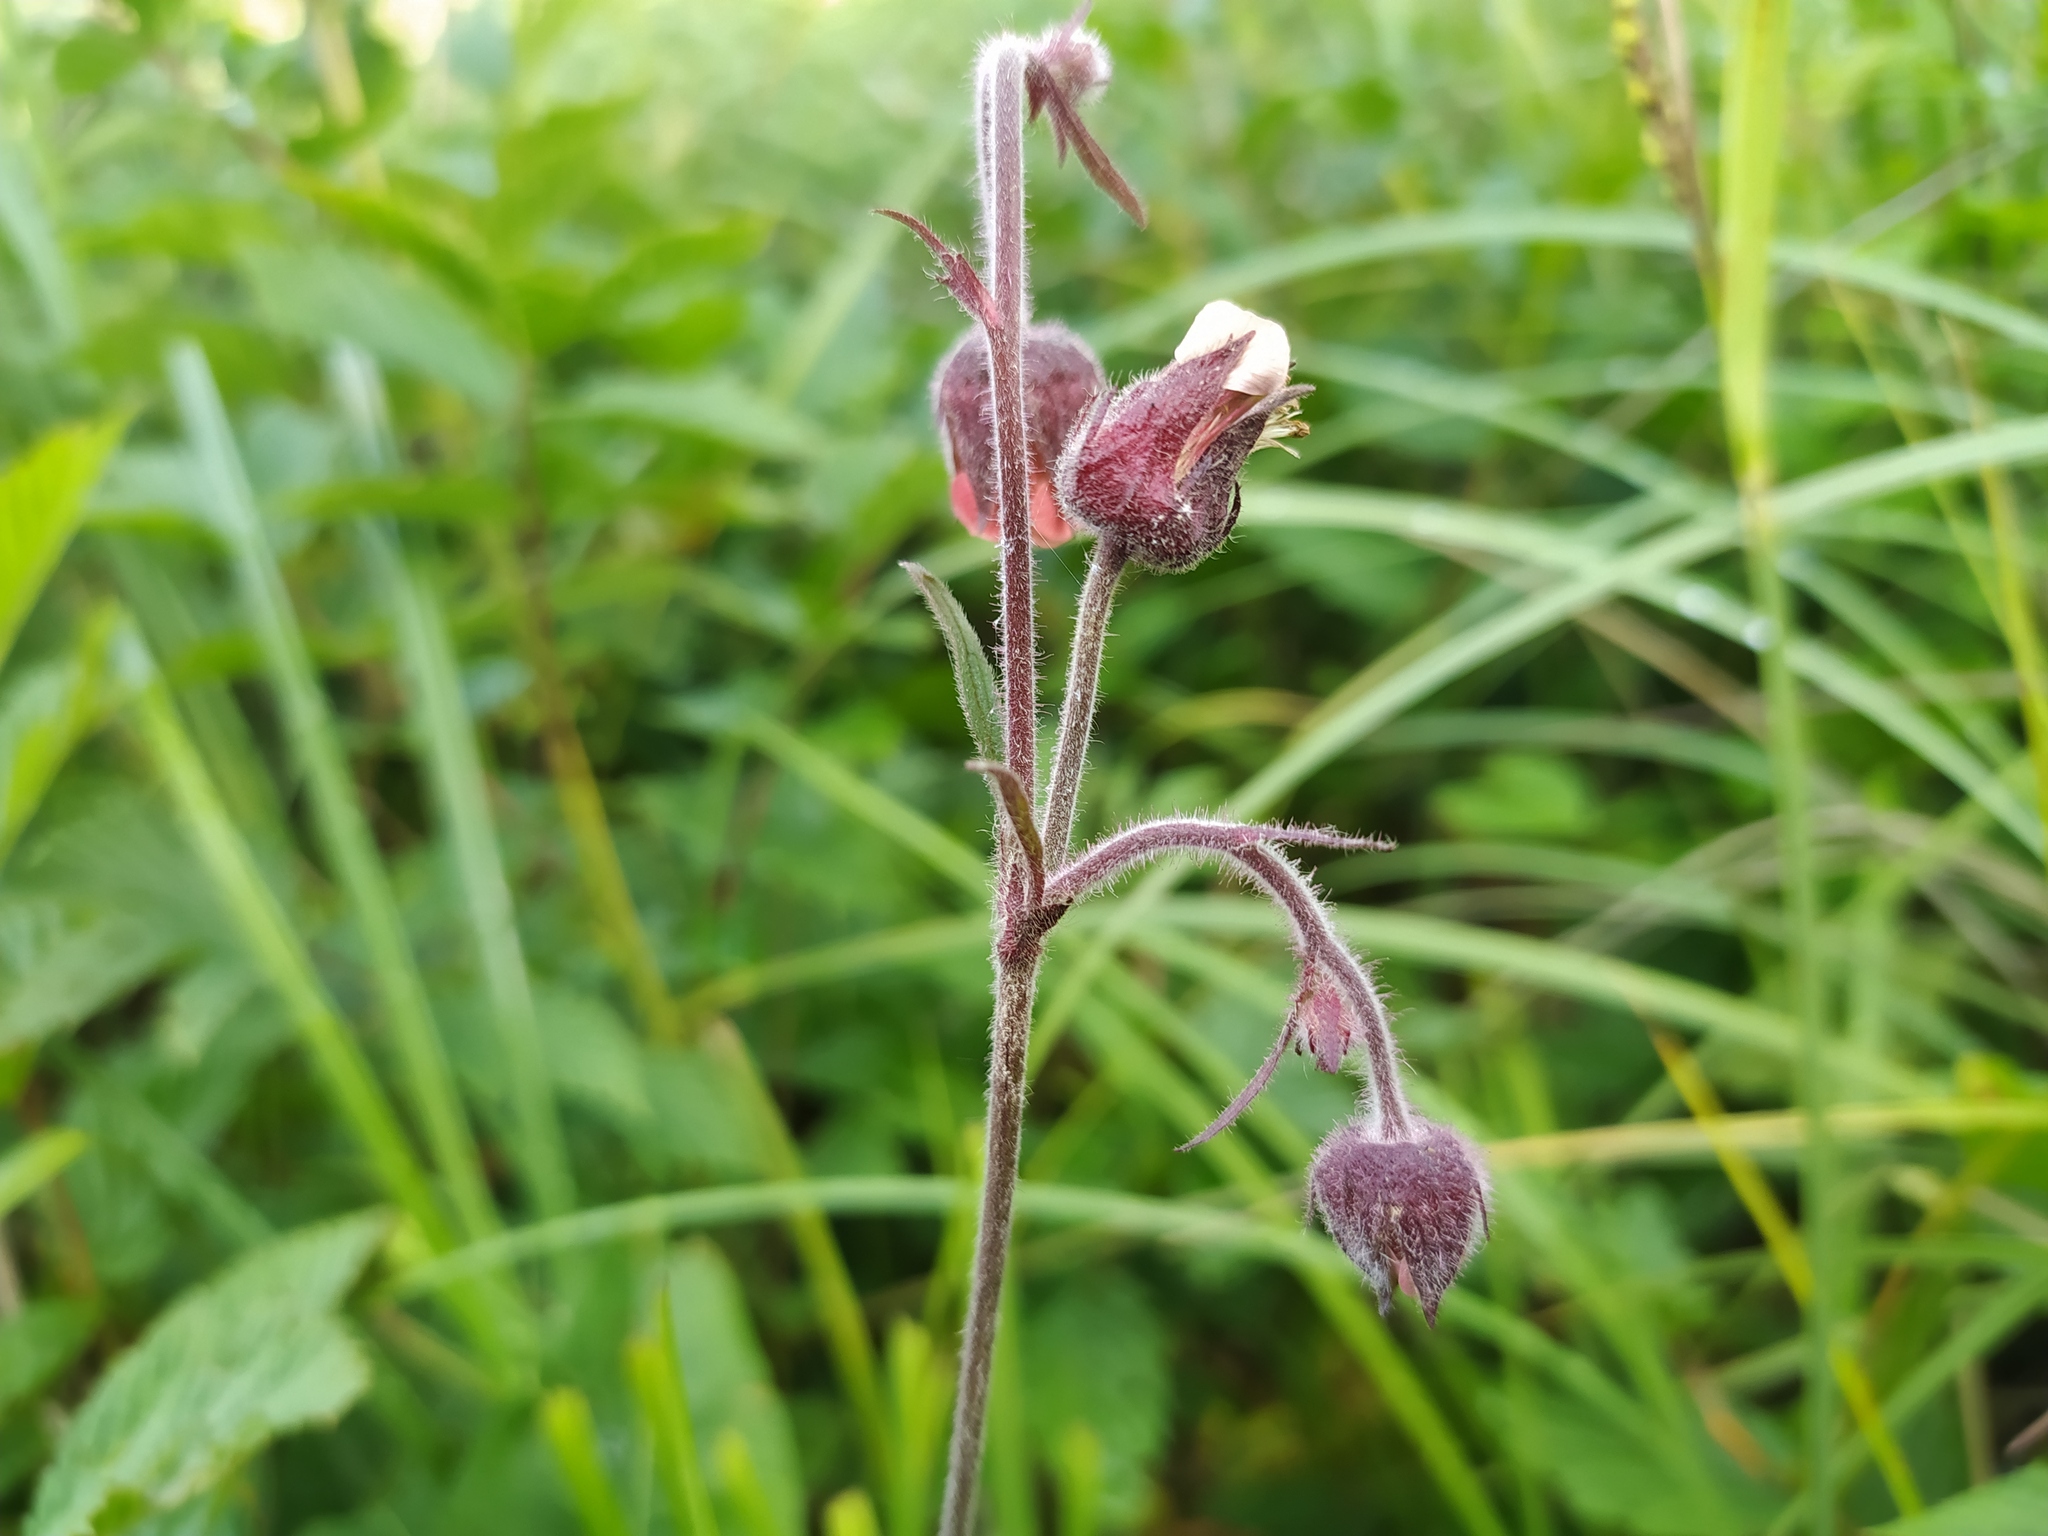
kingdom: Plantae
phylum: Tracheophyta
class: Magnoliopsida
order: Rosales
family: Rosaceae
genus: Geum
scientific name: Geum rivale
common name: Water avens
